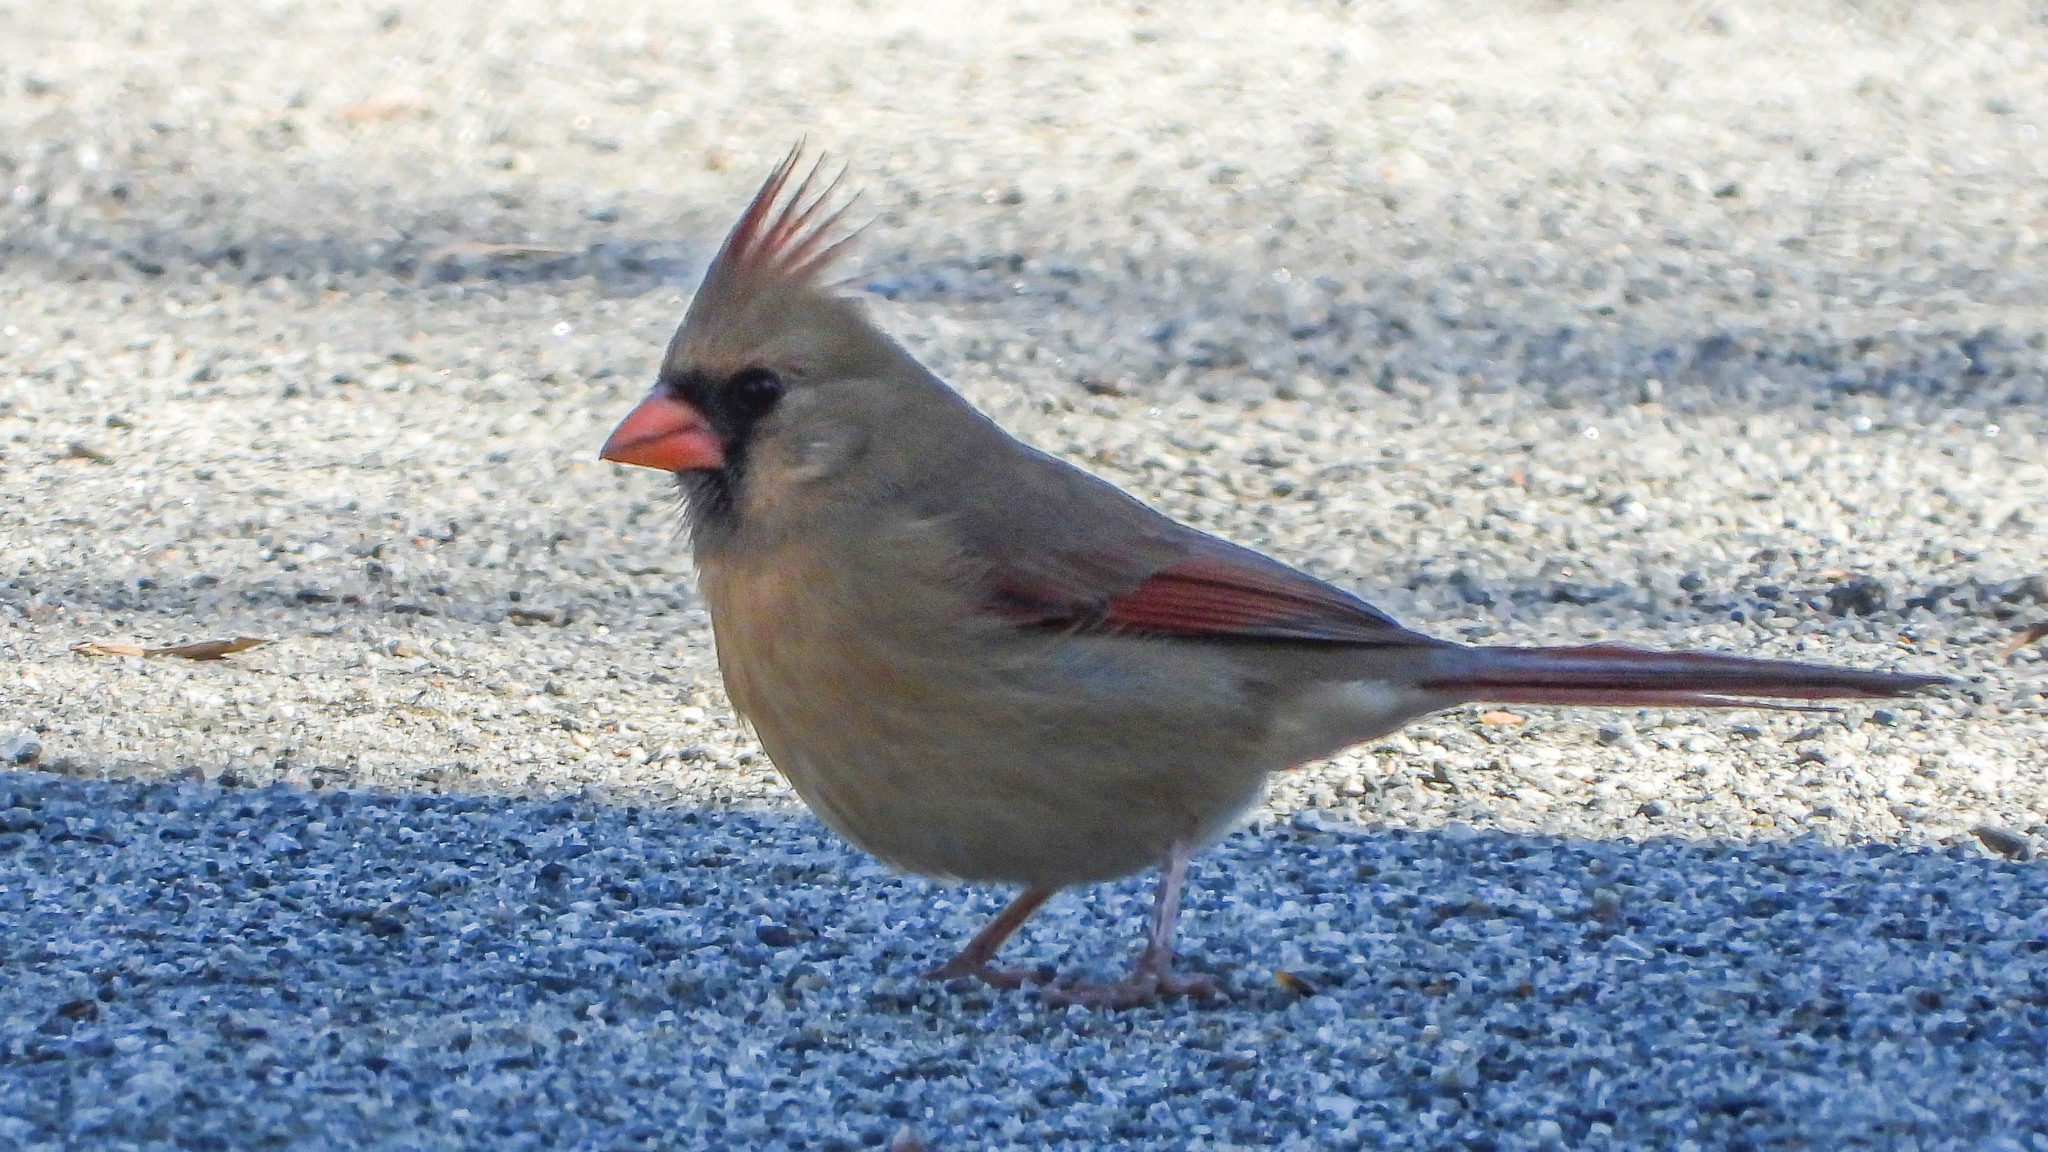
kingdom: Animalia
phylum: Chordata
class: Aves
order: Passeriformes
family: Cardinalidae
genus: Cardinalis
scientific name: Cardinalis cardinalis
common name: Northern cardinal
